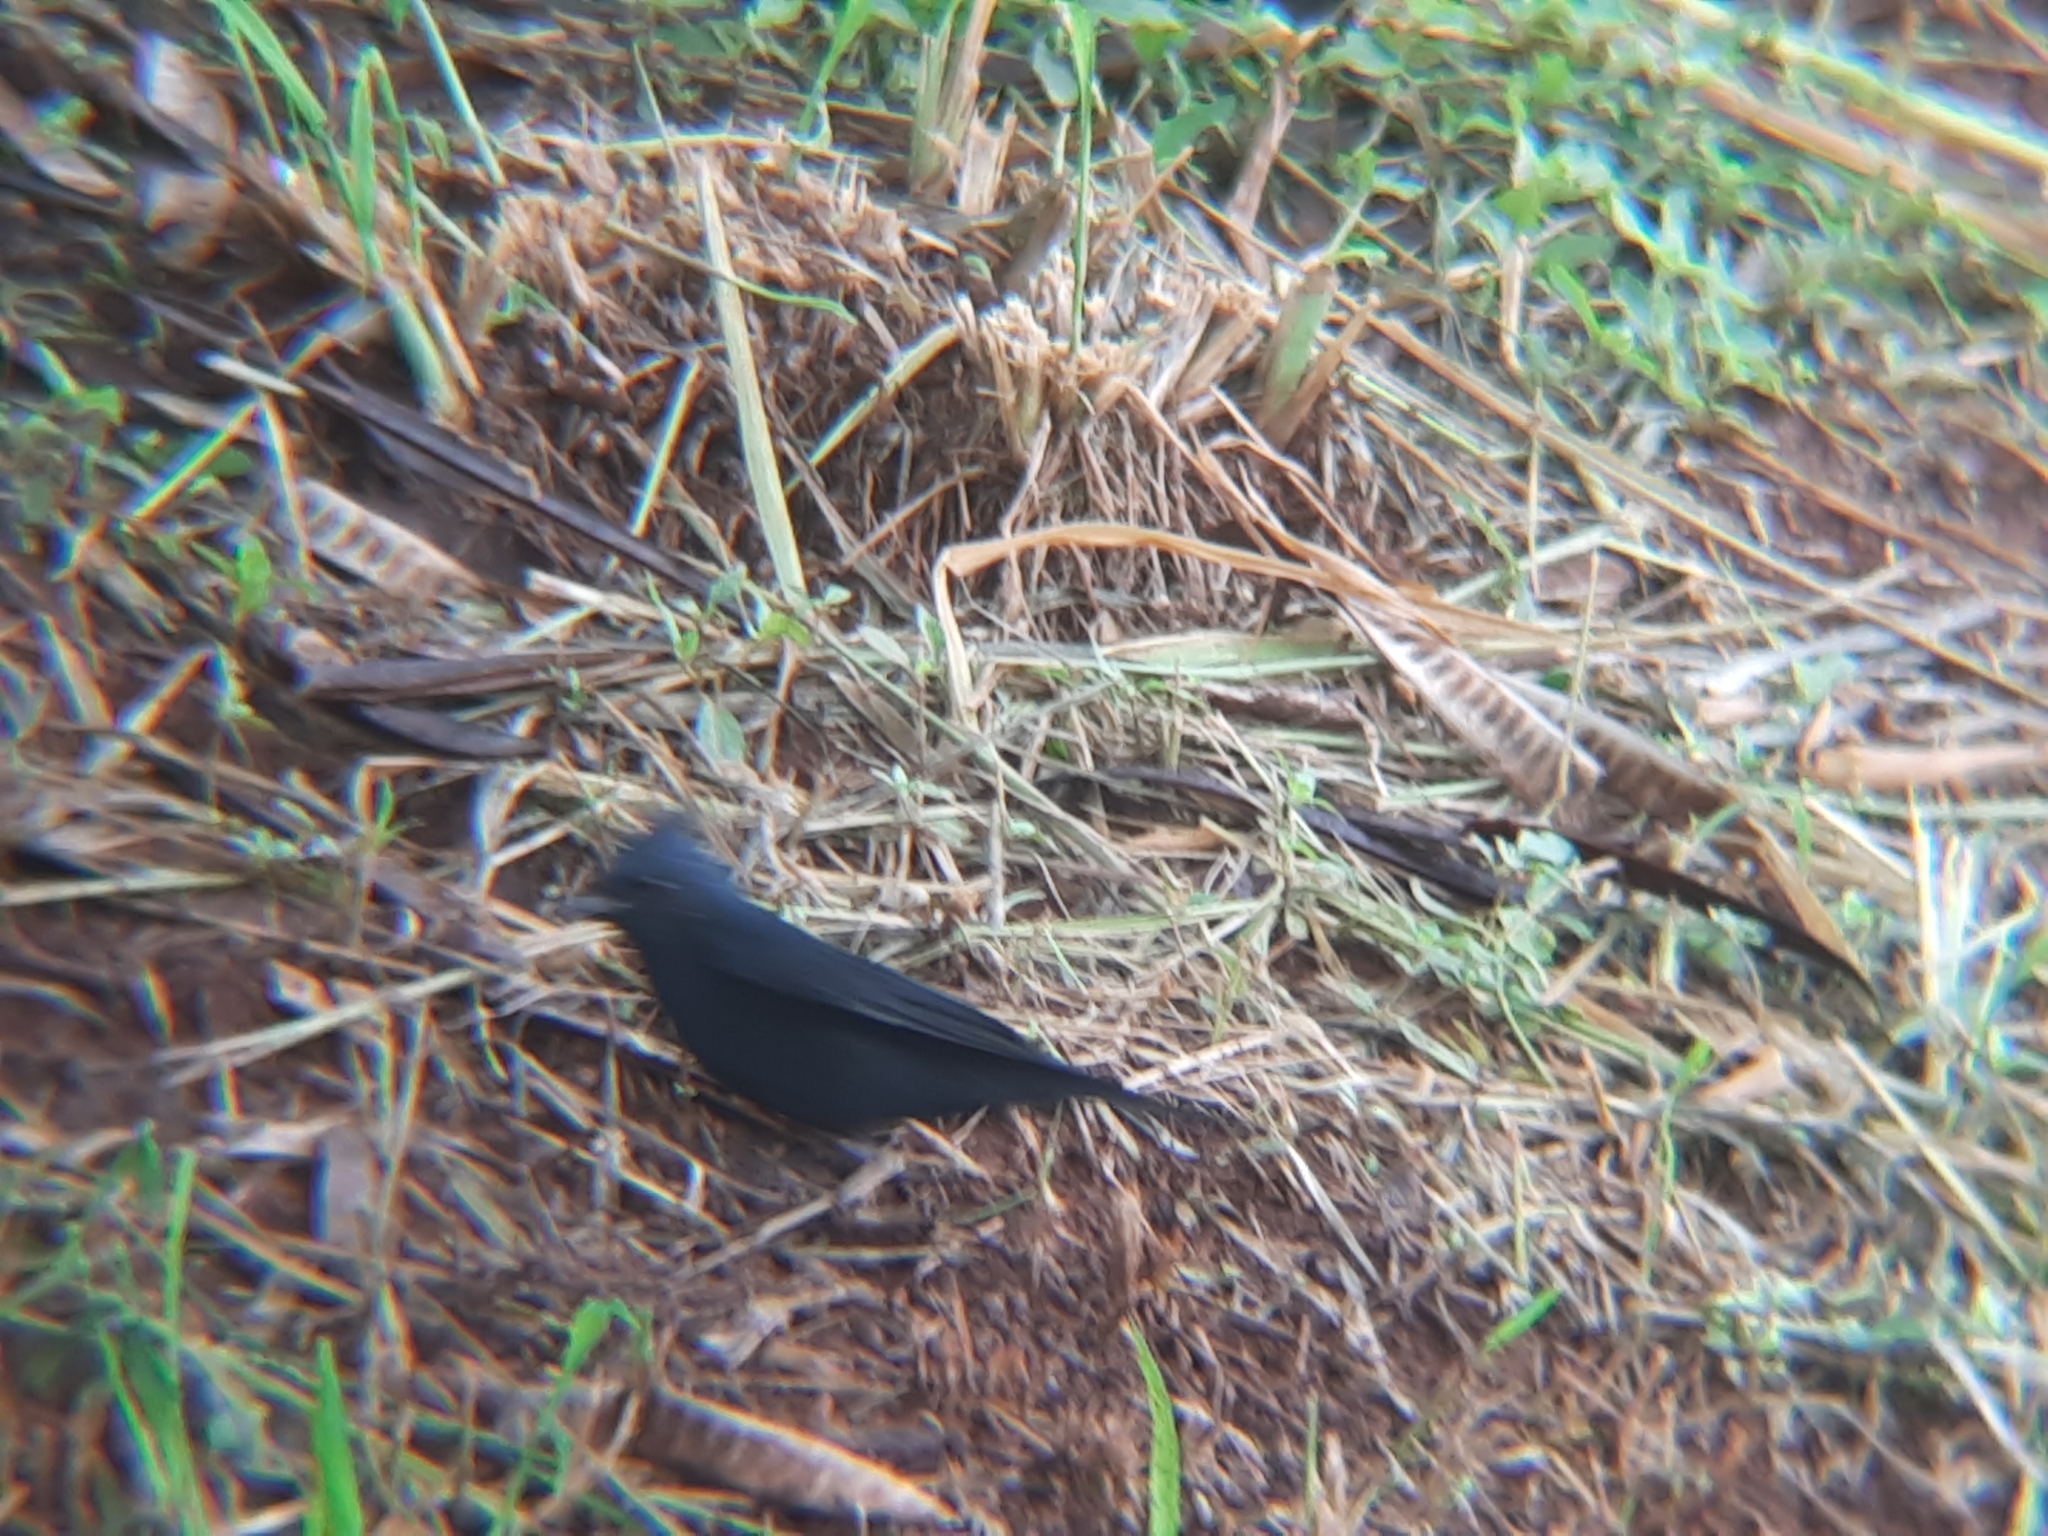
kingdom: Animalia
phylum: Chordata
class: Aves
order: Passeriformes
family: Tyrannidae
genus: Knipolegus
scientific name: Knipolegus lophotes
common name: Crested black tyrant
